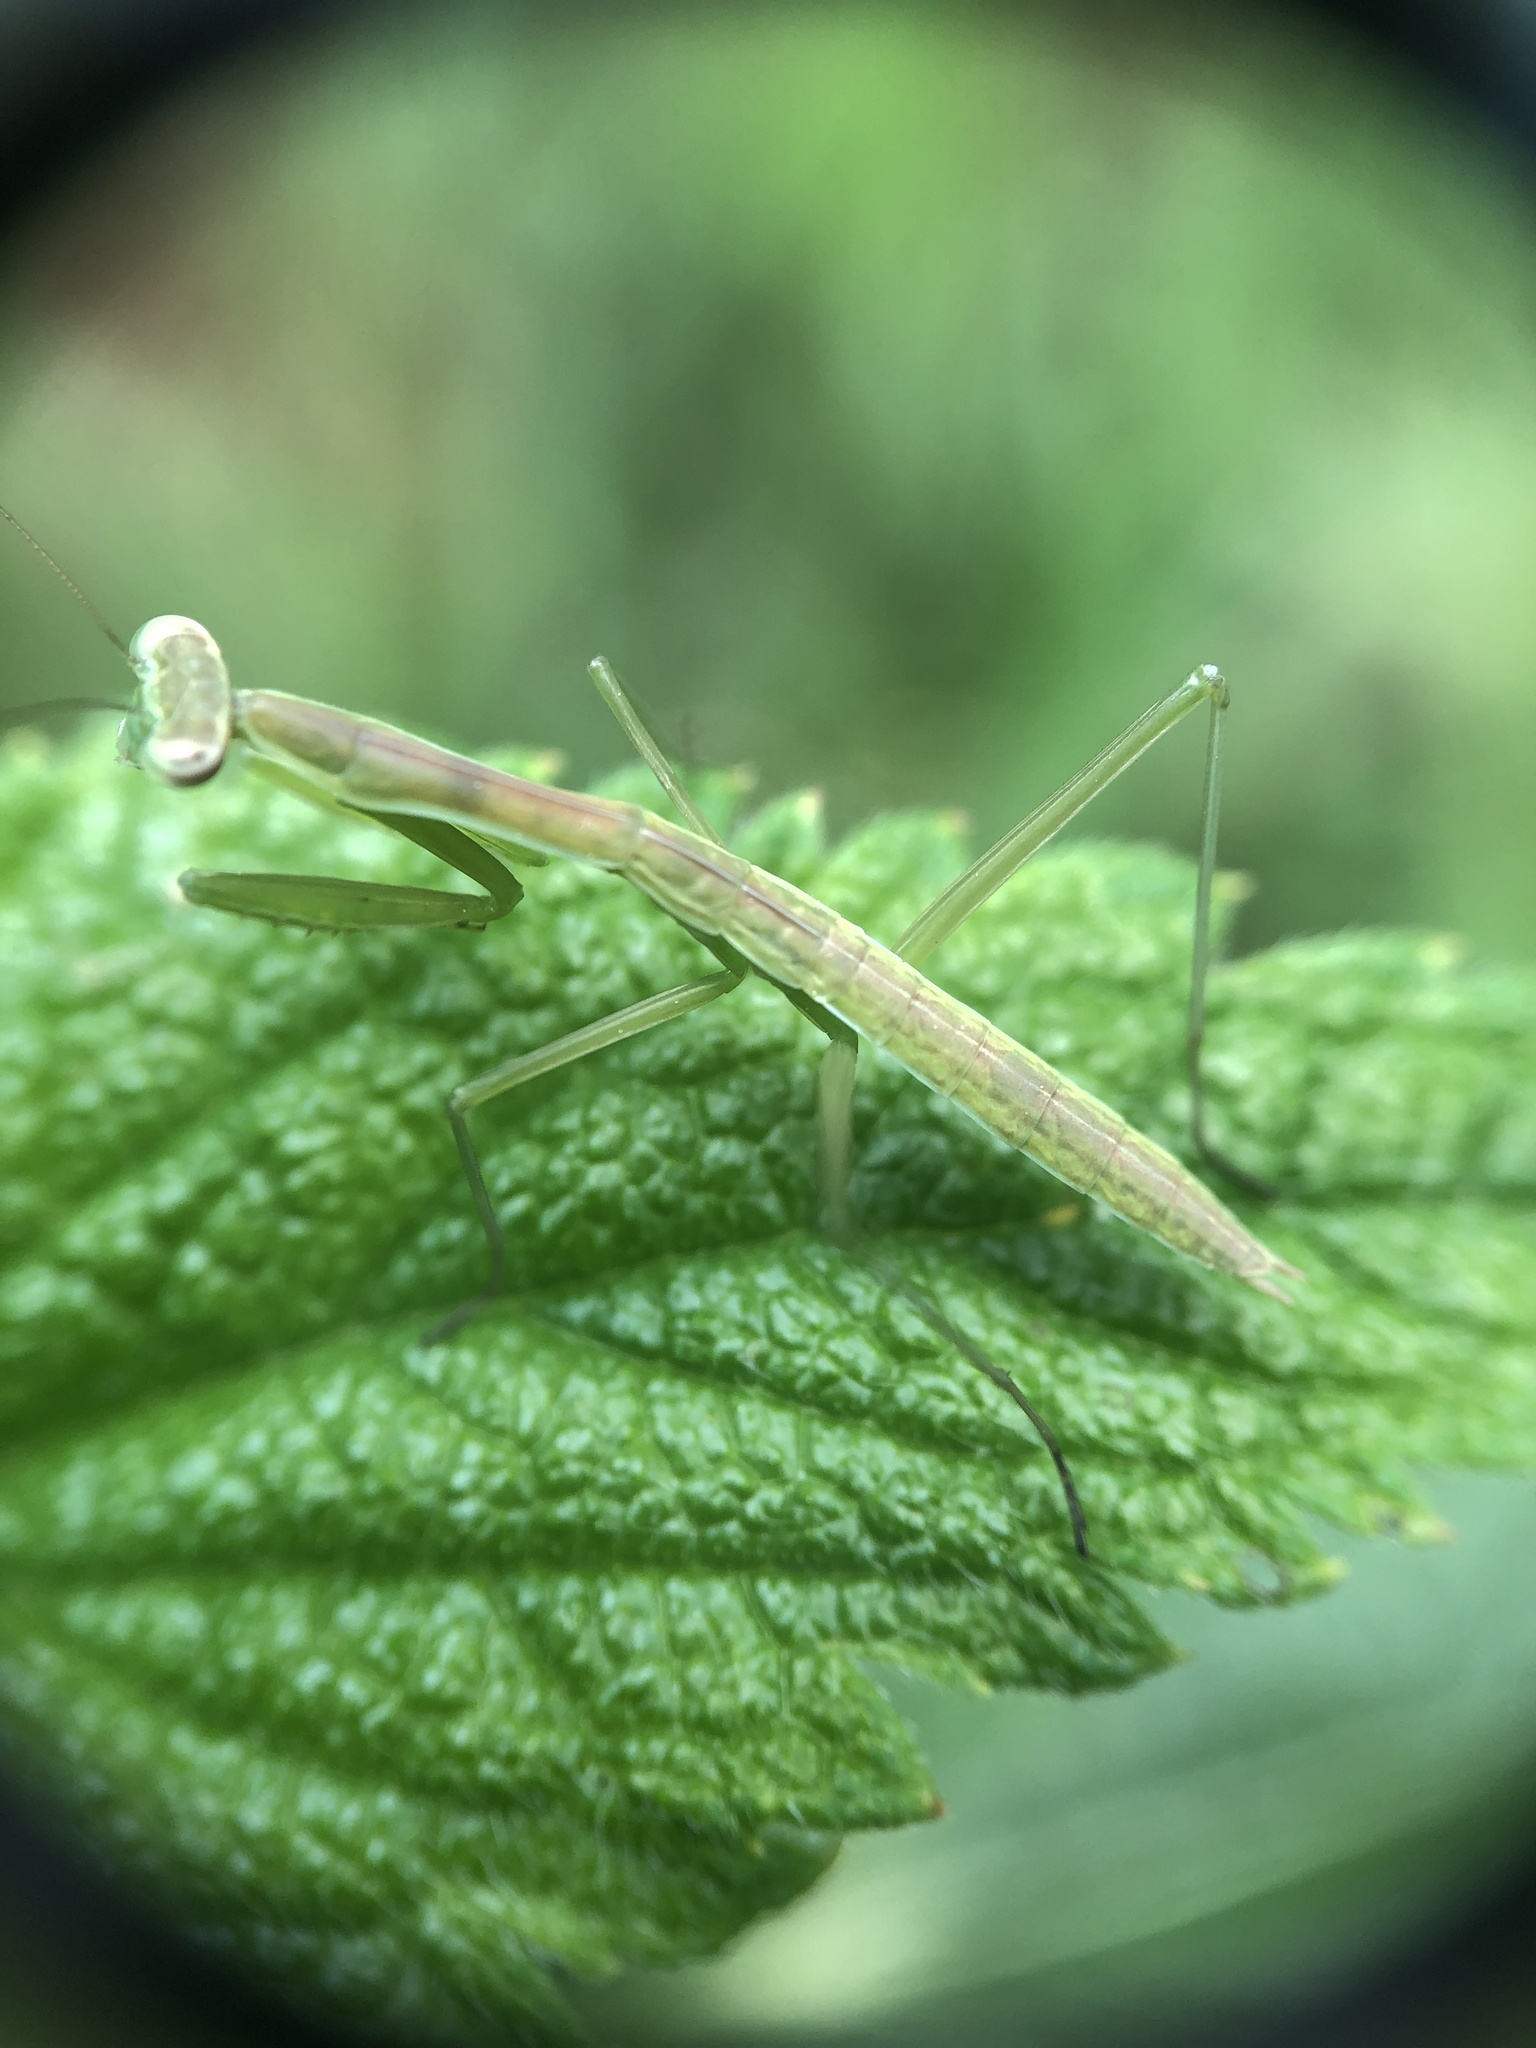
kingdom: Animalia
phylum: Arthropoda
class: Insecta
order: Mantodea
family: Mantidae
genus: Tenodera
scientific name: Tenodera sinensis
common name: Chinese mantis
